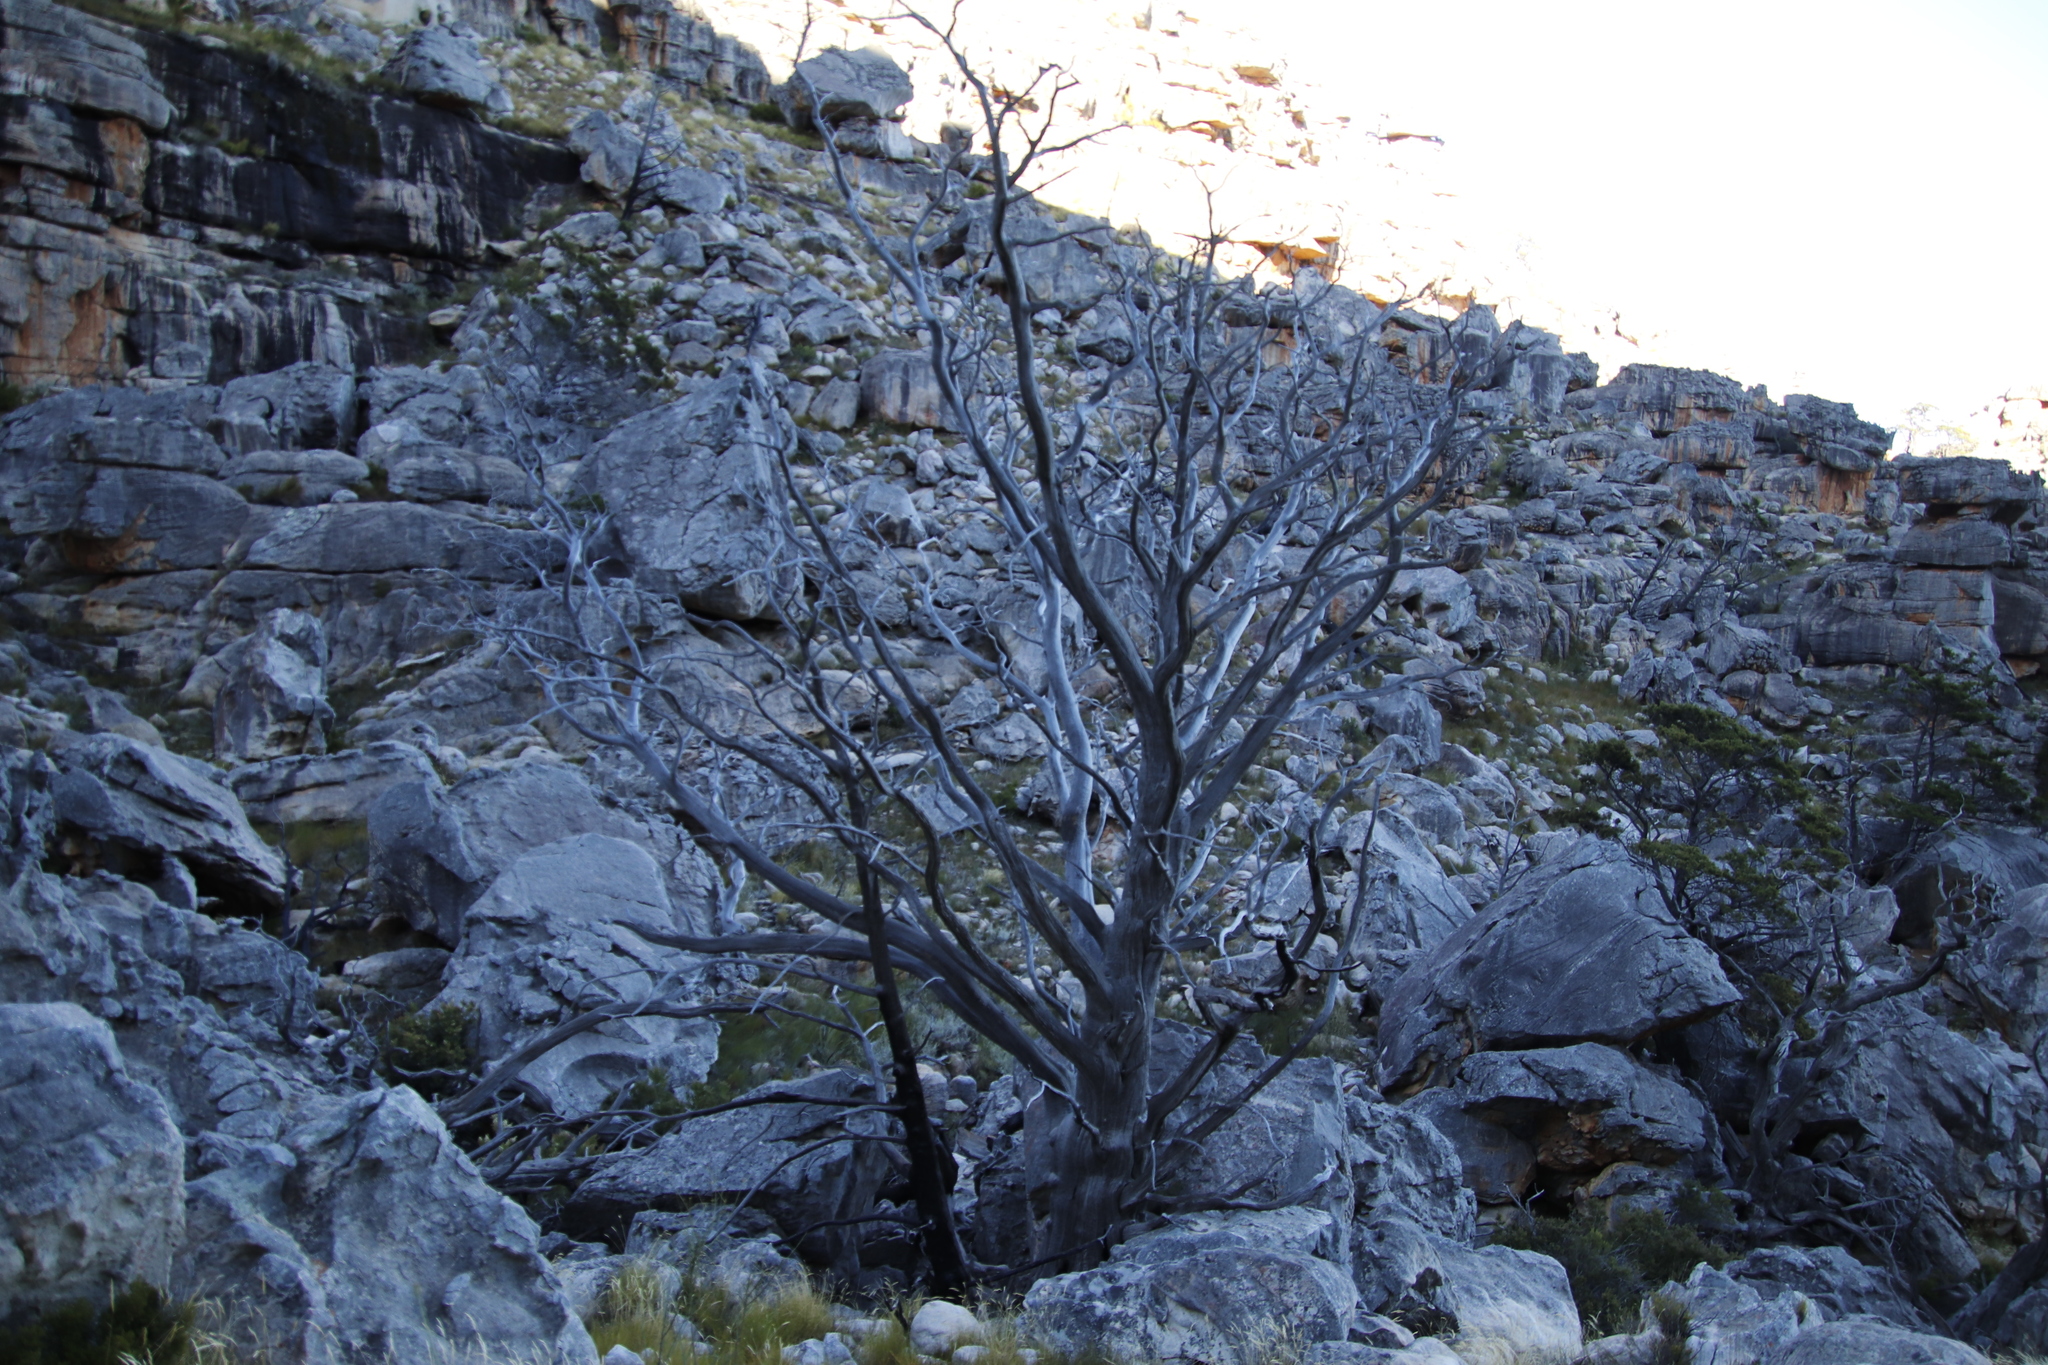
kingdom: Plantae
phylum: Tracheophyta
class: Pinopsida
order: Pinales
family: Cupressaceae
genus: Widdringtonia
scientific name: Widdringtonia nodiflora
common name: Cape cypress
